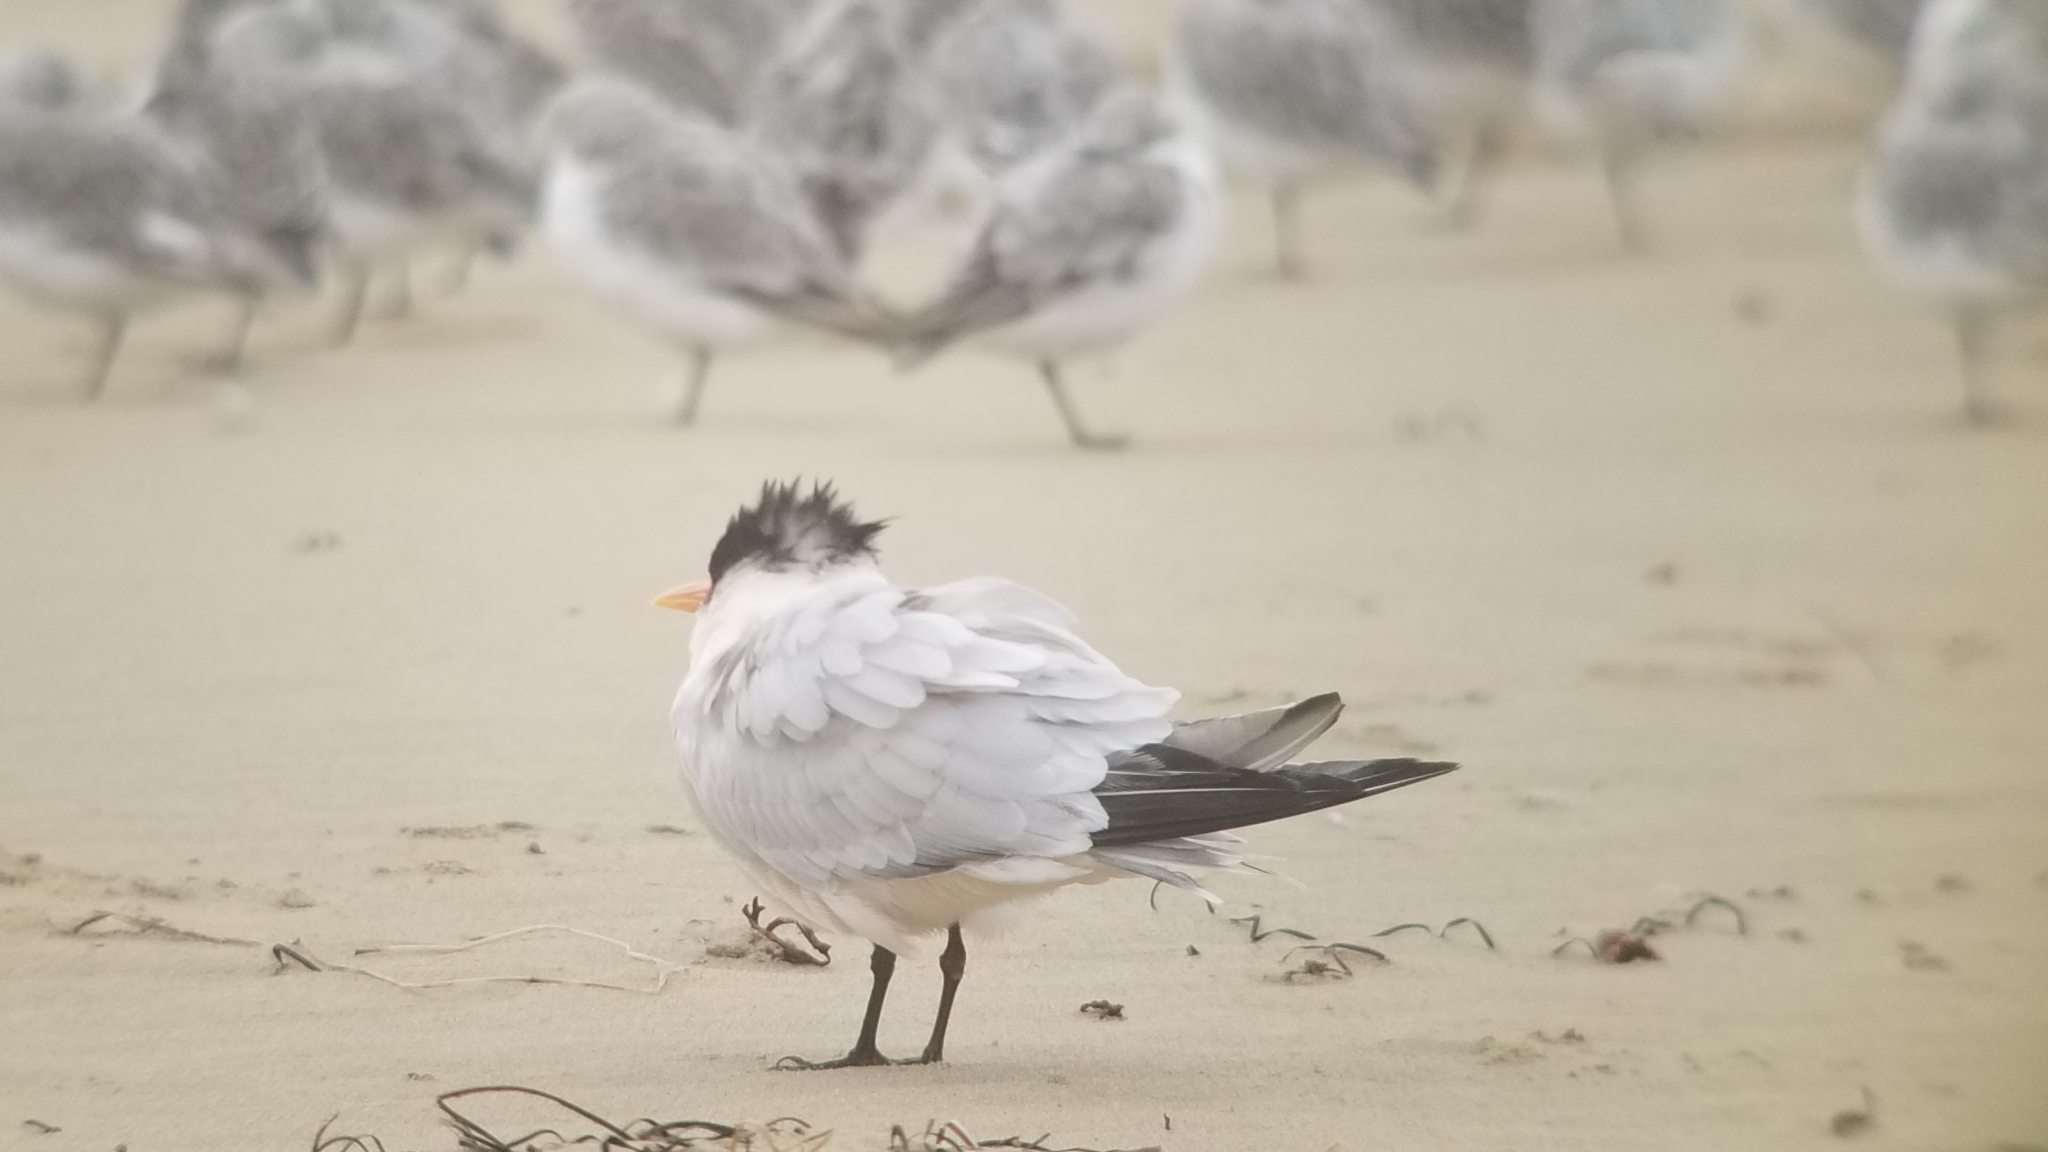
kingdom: Animalia
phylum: Chordata
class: Aves
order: Charadriiformes
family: Laridae
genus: Thalasseus
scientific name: Thalasseus elegans
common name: Elegant tern
